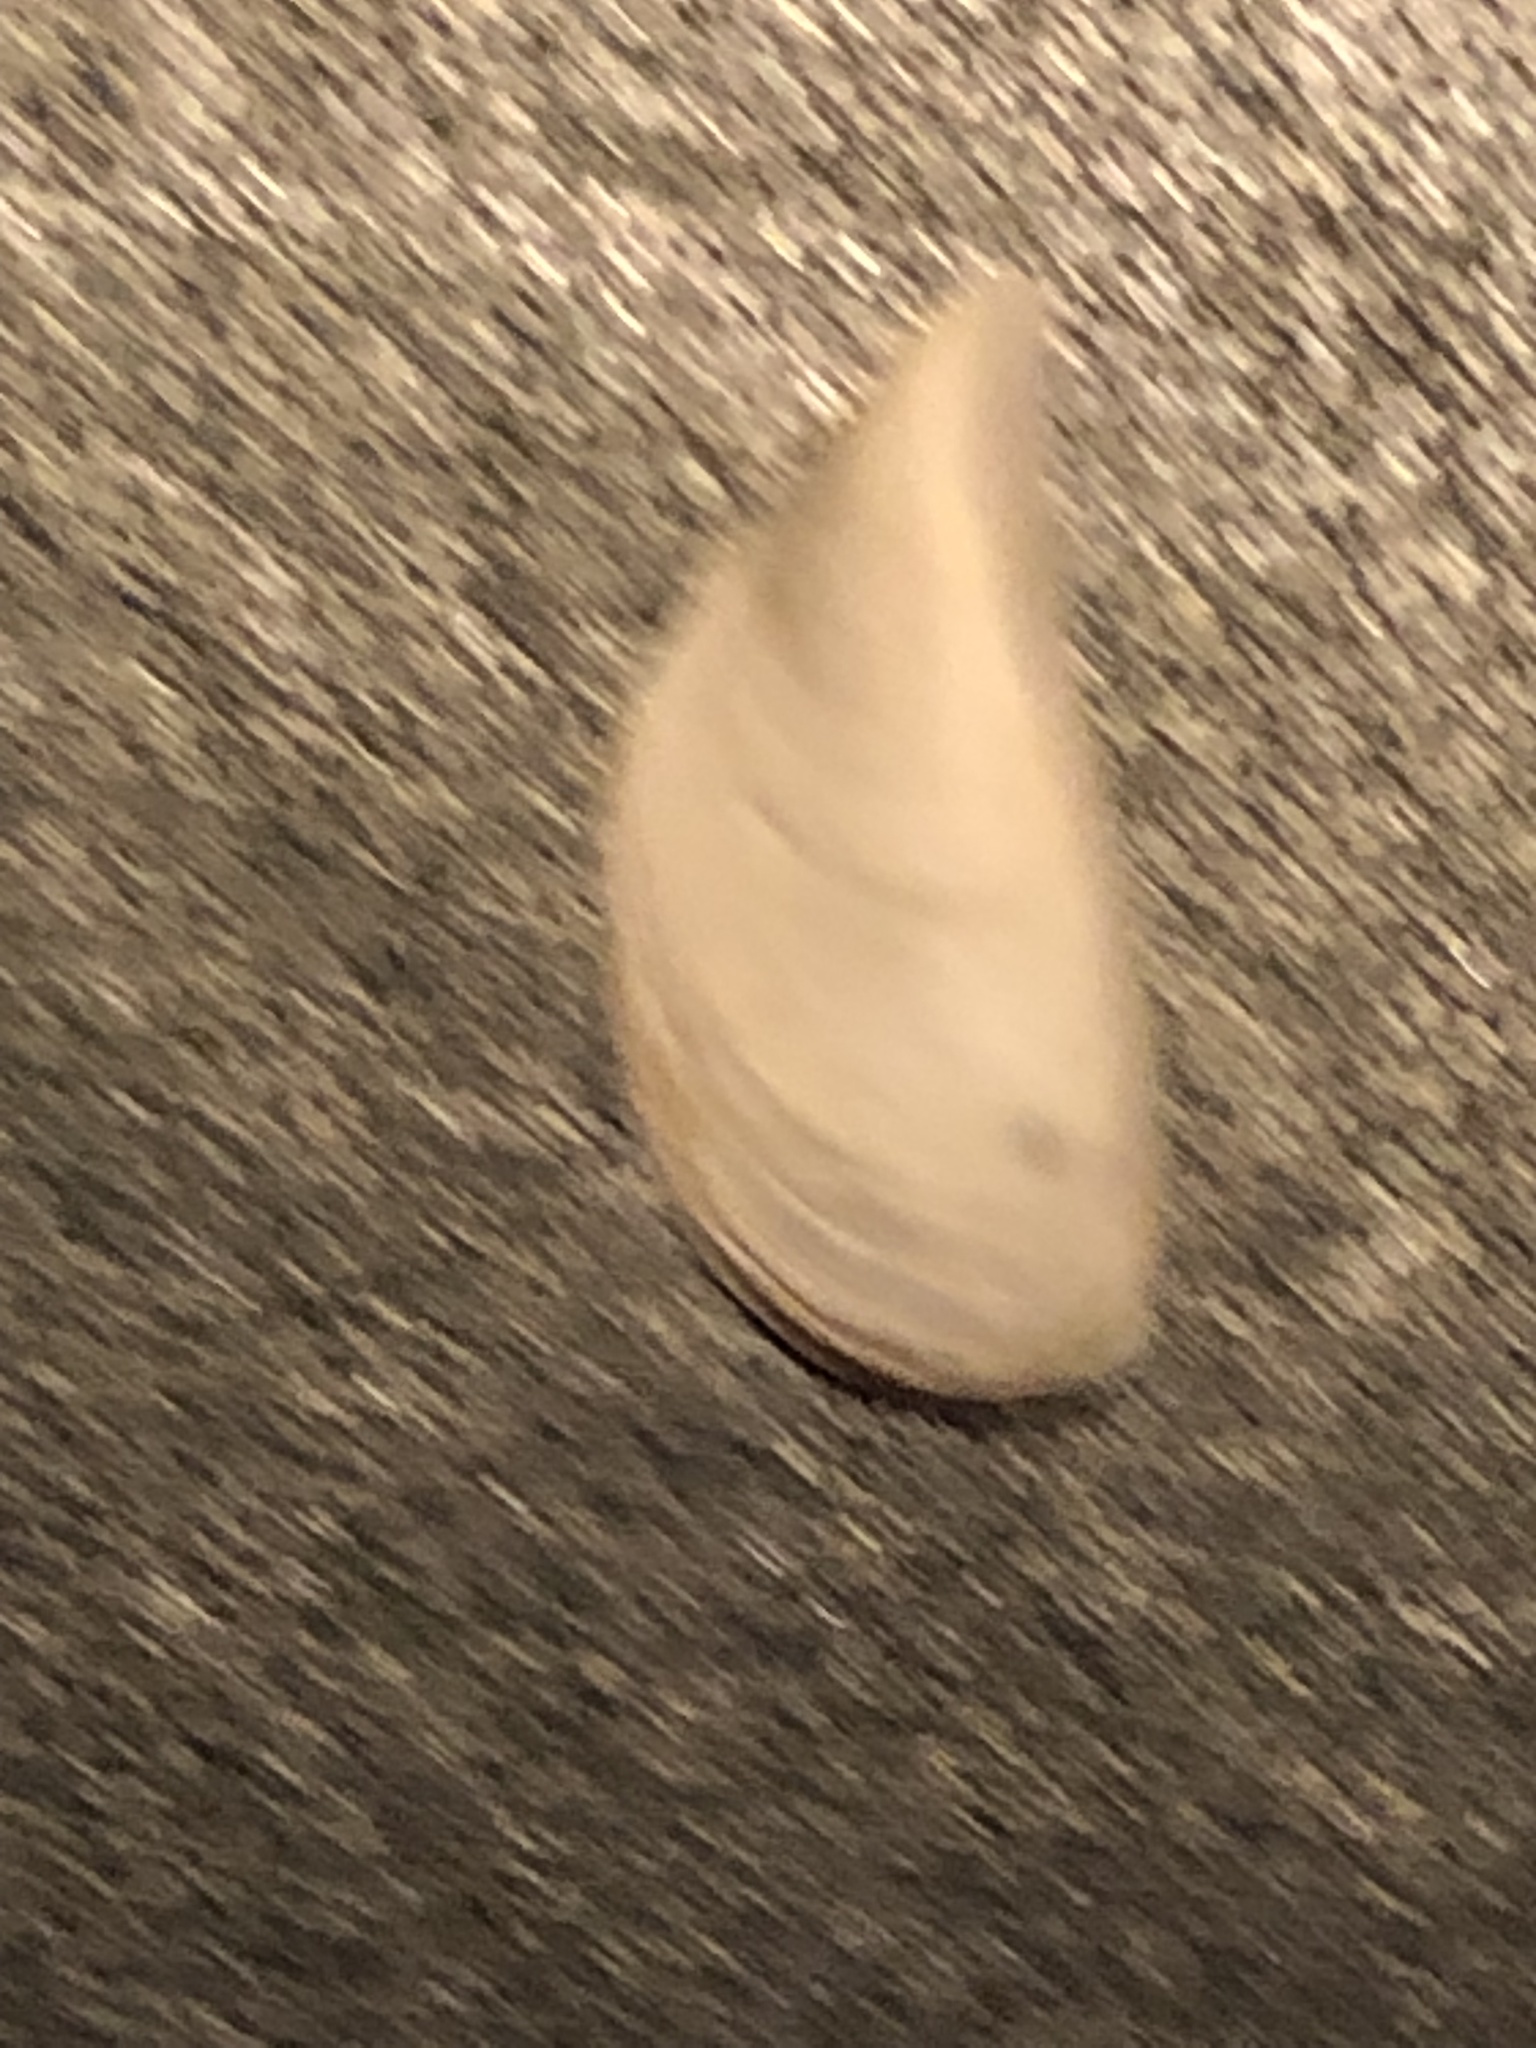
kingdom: Animalia
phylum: Mollusca
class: Bivalvia
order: Myida
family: Dreissenidae
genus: Dreissena
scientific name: Dreissena polymorpha
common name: Zebra mussel
